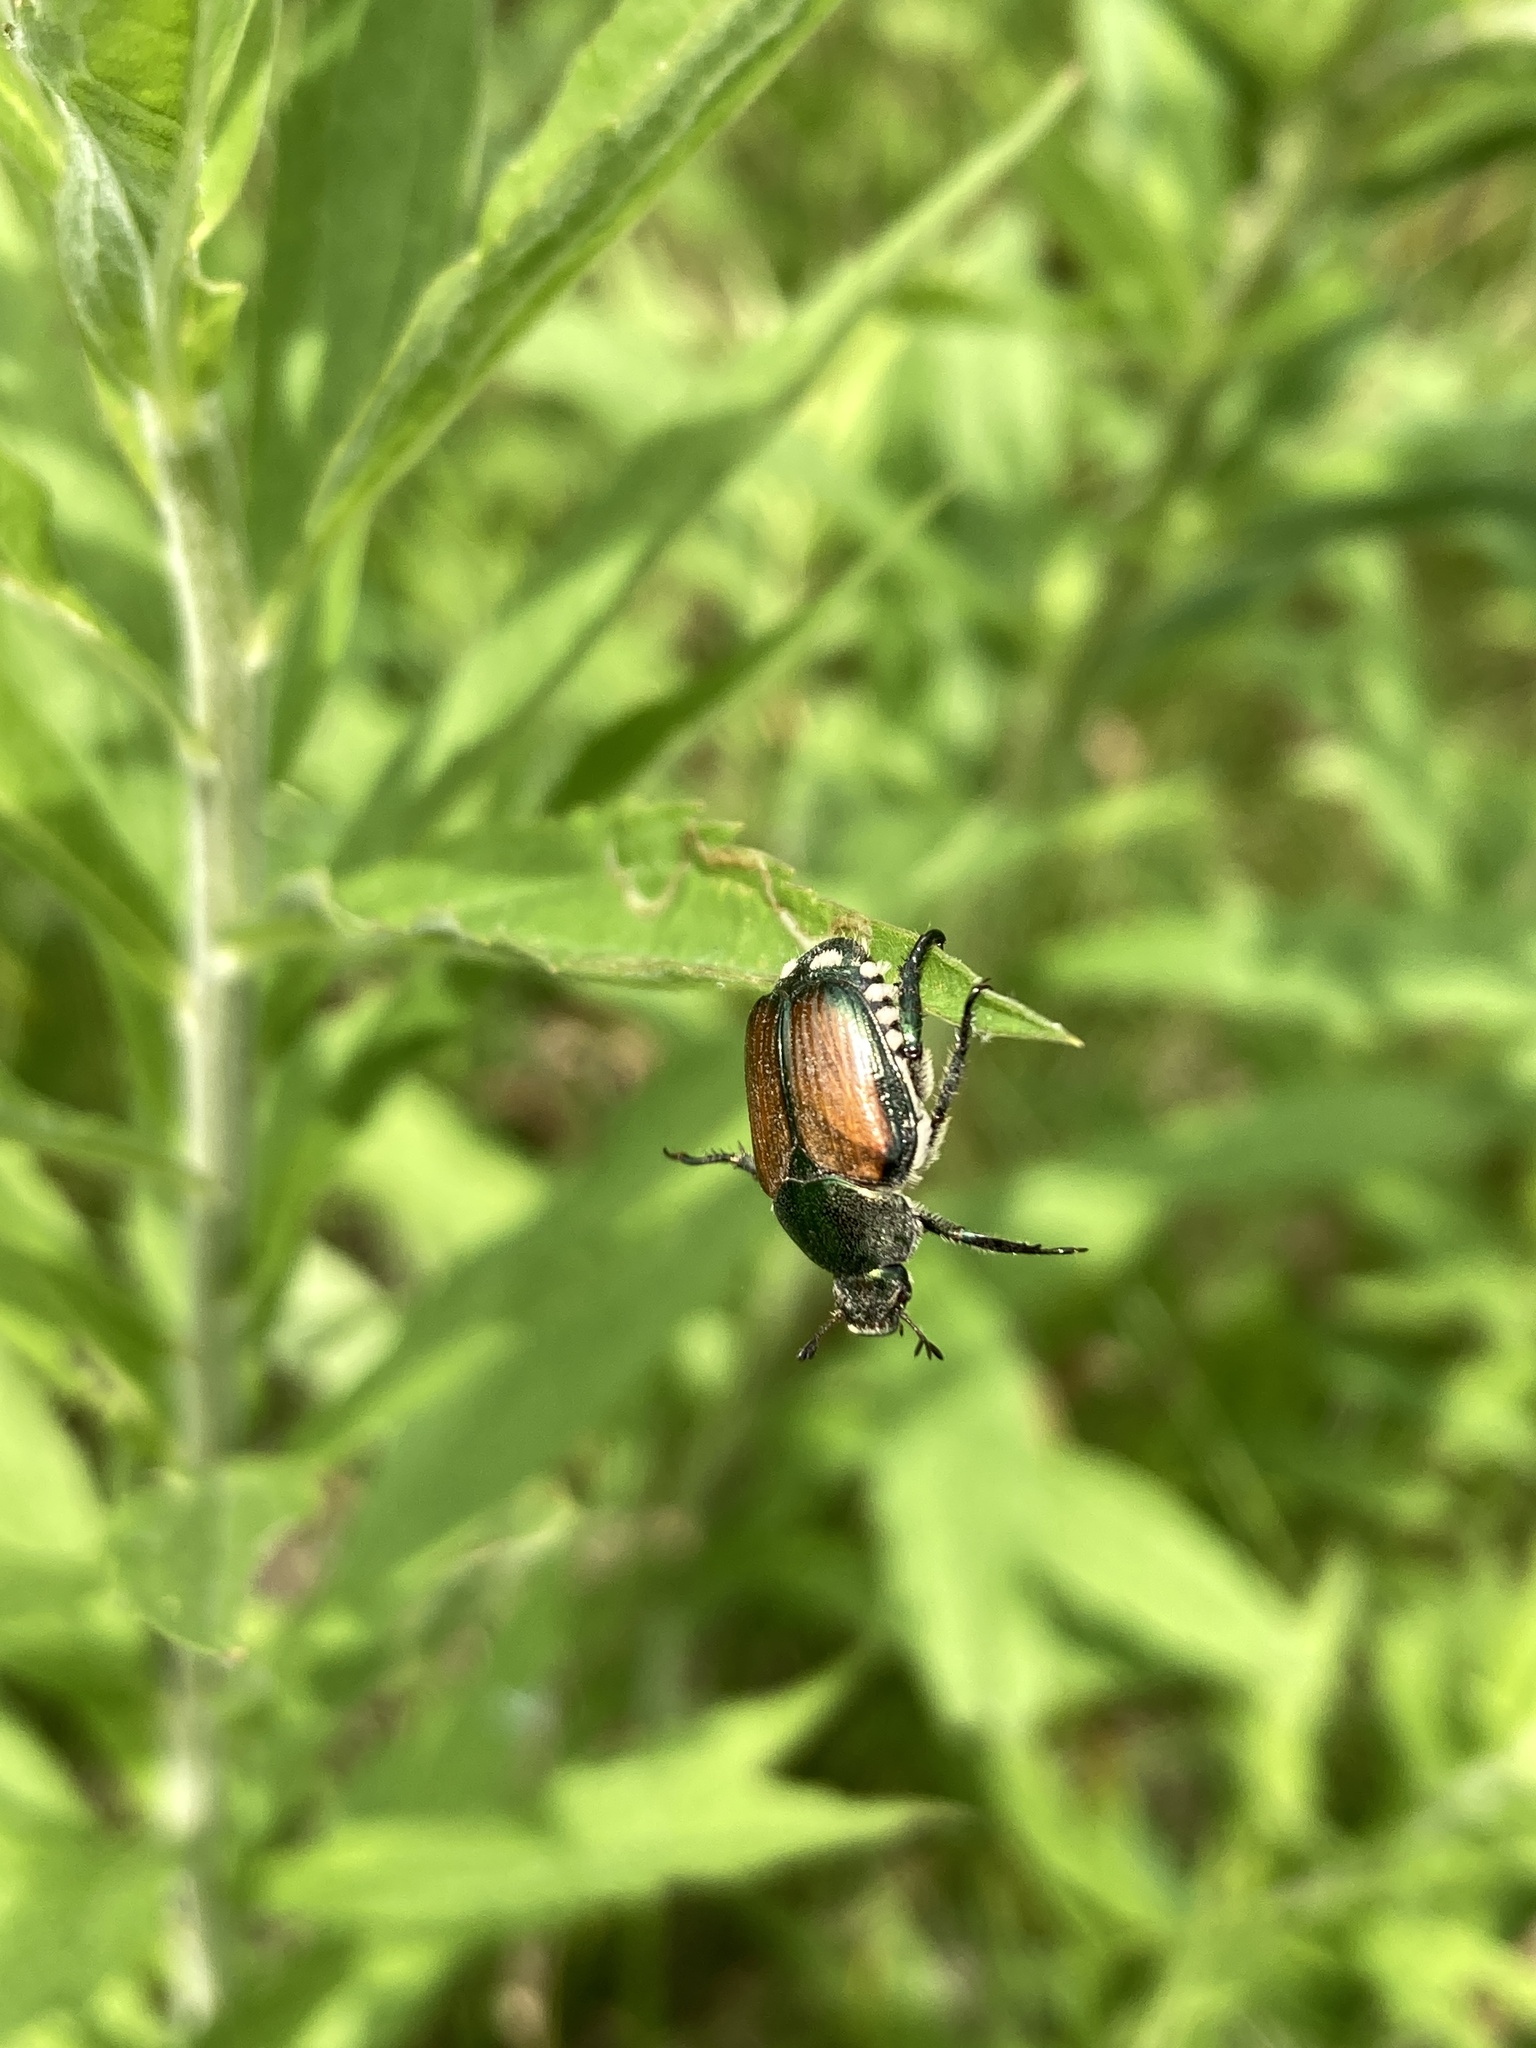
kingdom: Animalia
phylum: Arthropoda
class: Insecta
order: Coleoptera
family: Scarabaeidae
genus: Popillia
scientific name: Popillia japonica
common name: Japanese beetle
